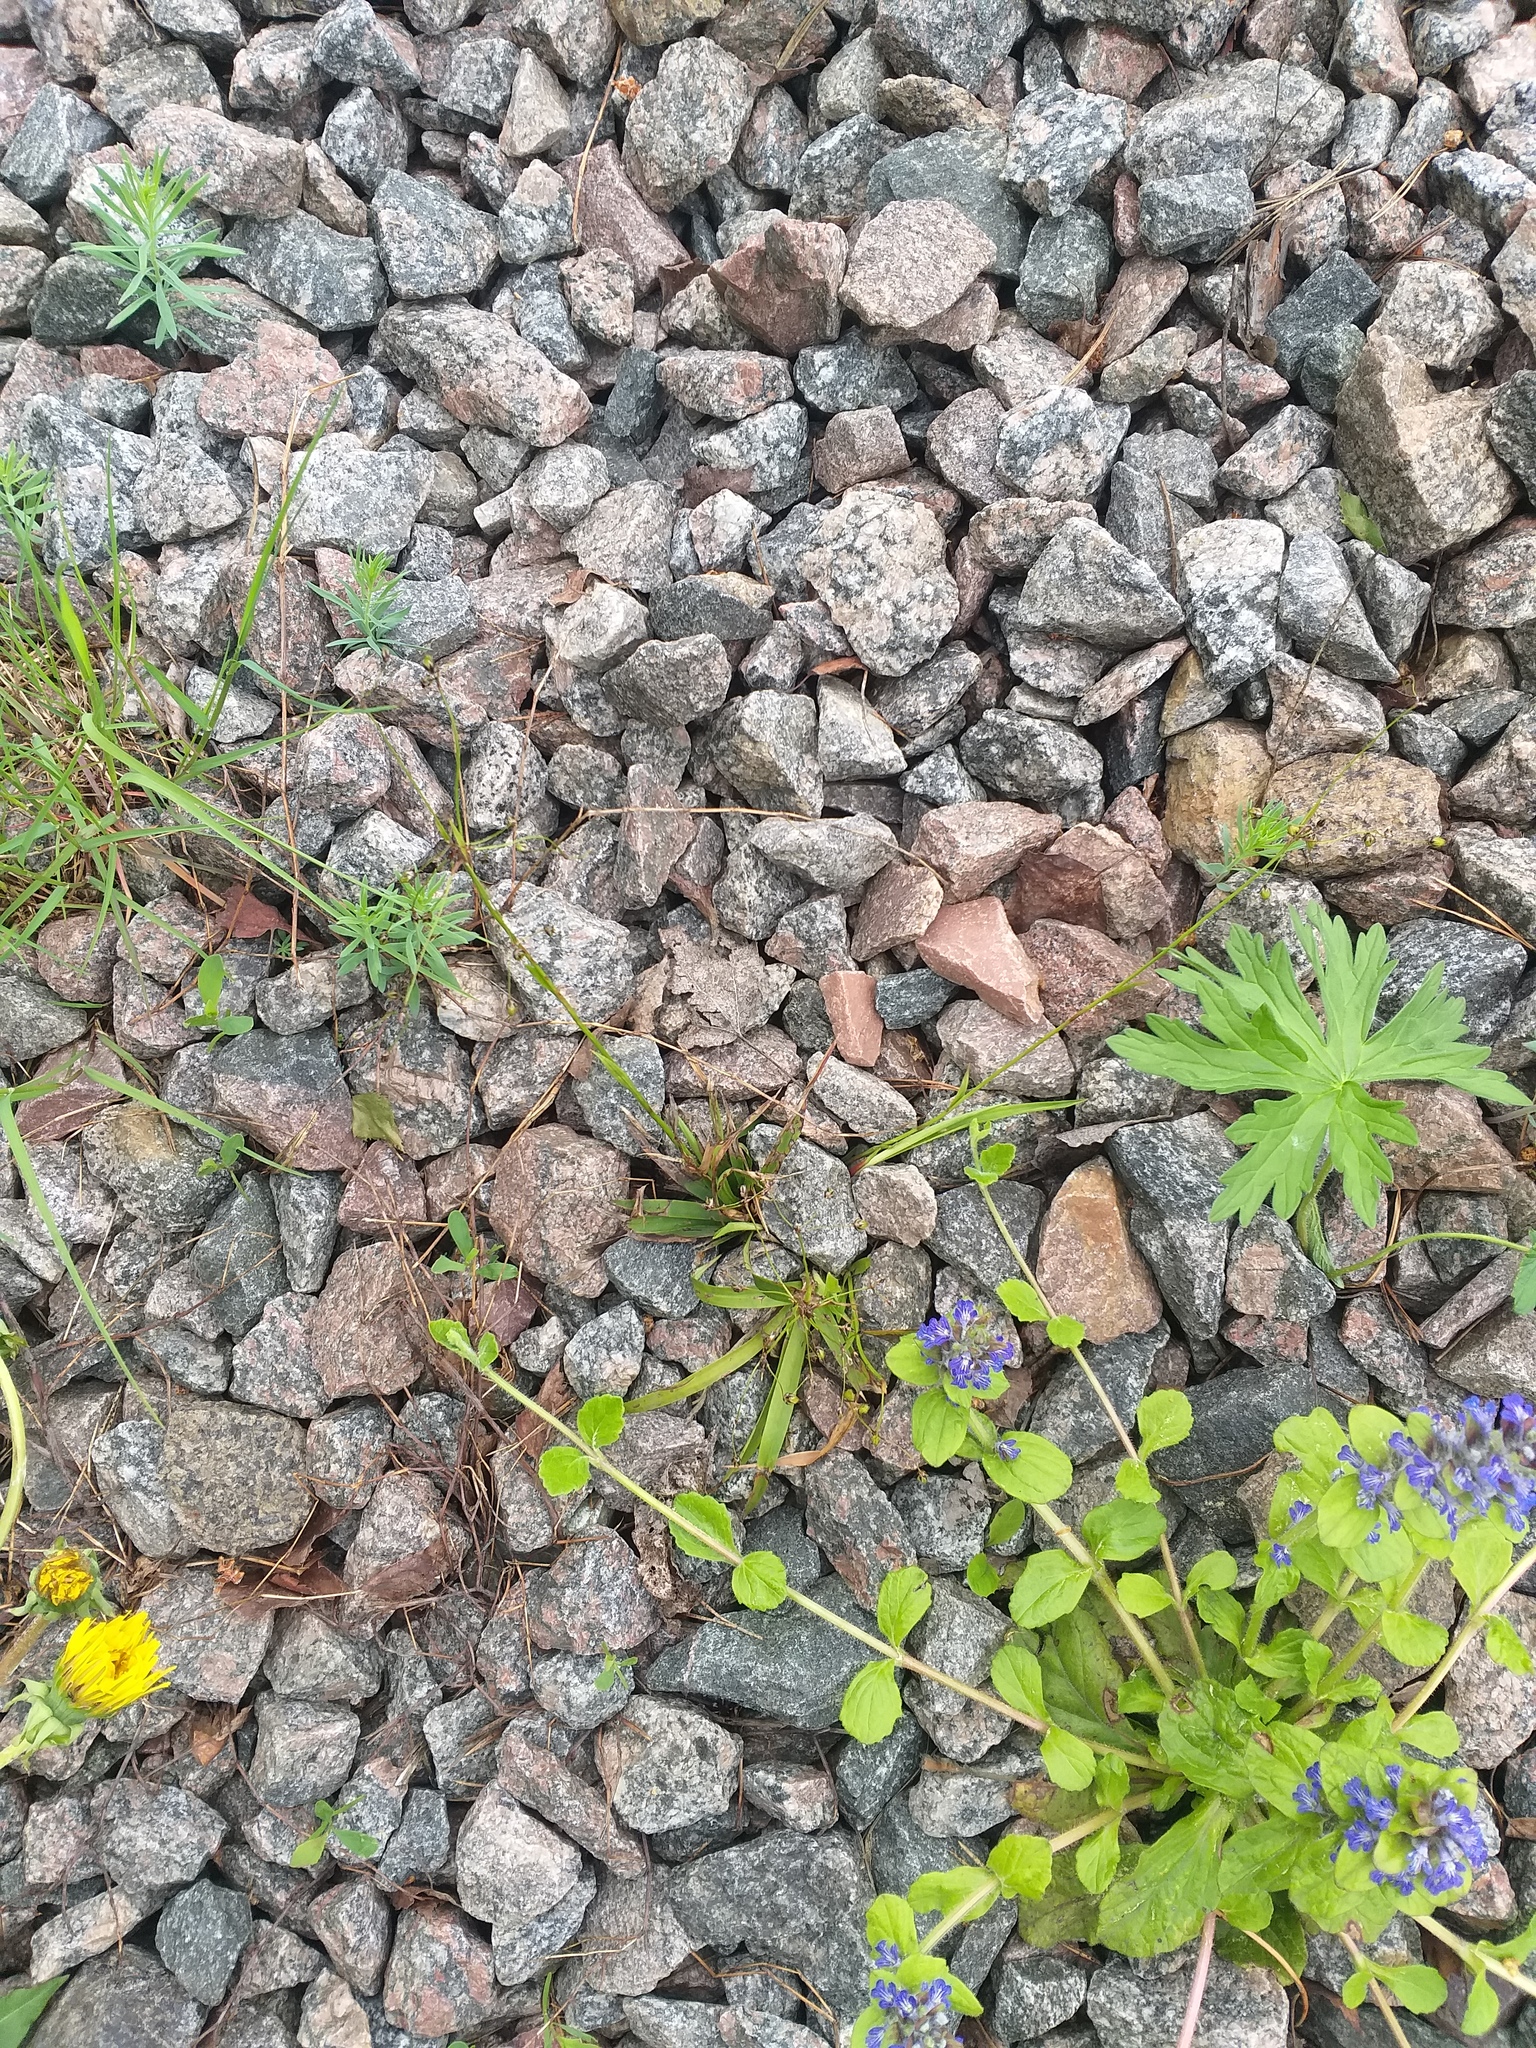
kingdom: Plantae
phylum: Tracheophyta
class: Liliopsida
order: Poales
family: Juncaceae
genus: Luzula
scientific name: Luzula pilosa
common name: Hairy wood-rush
